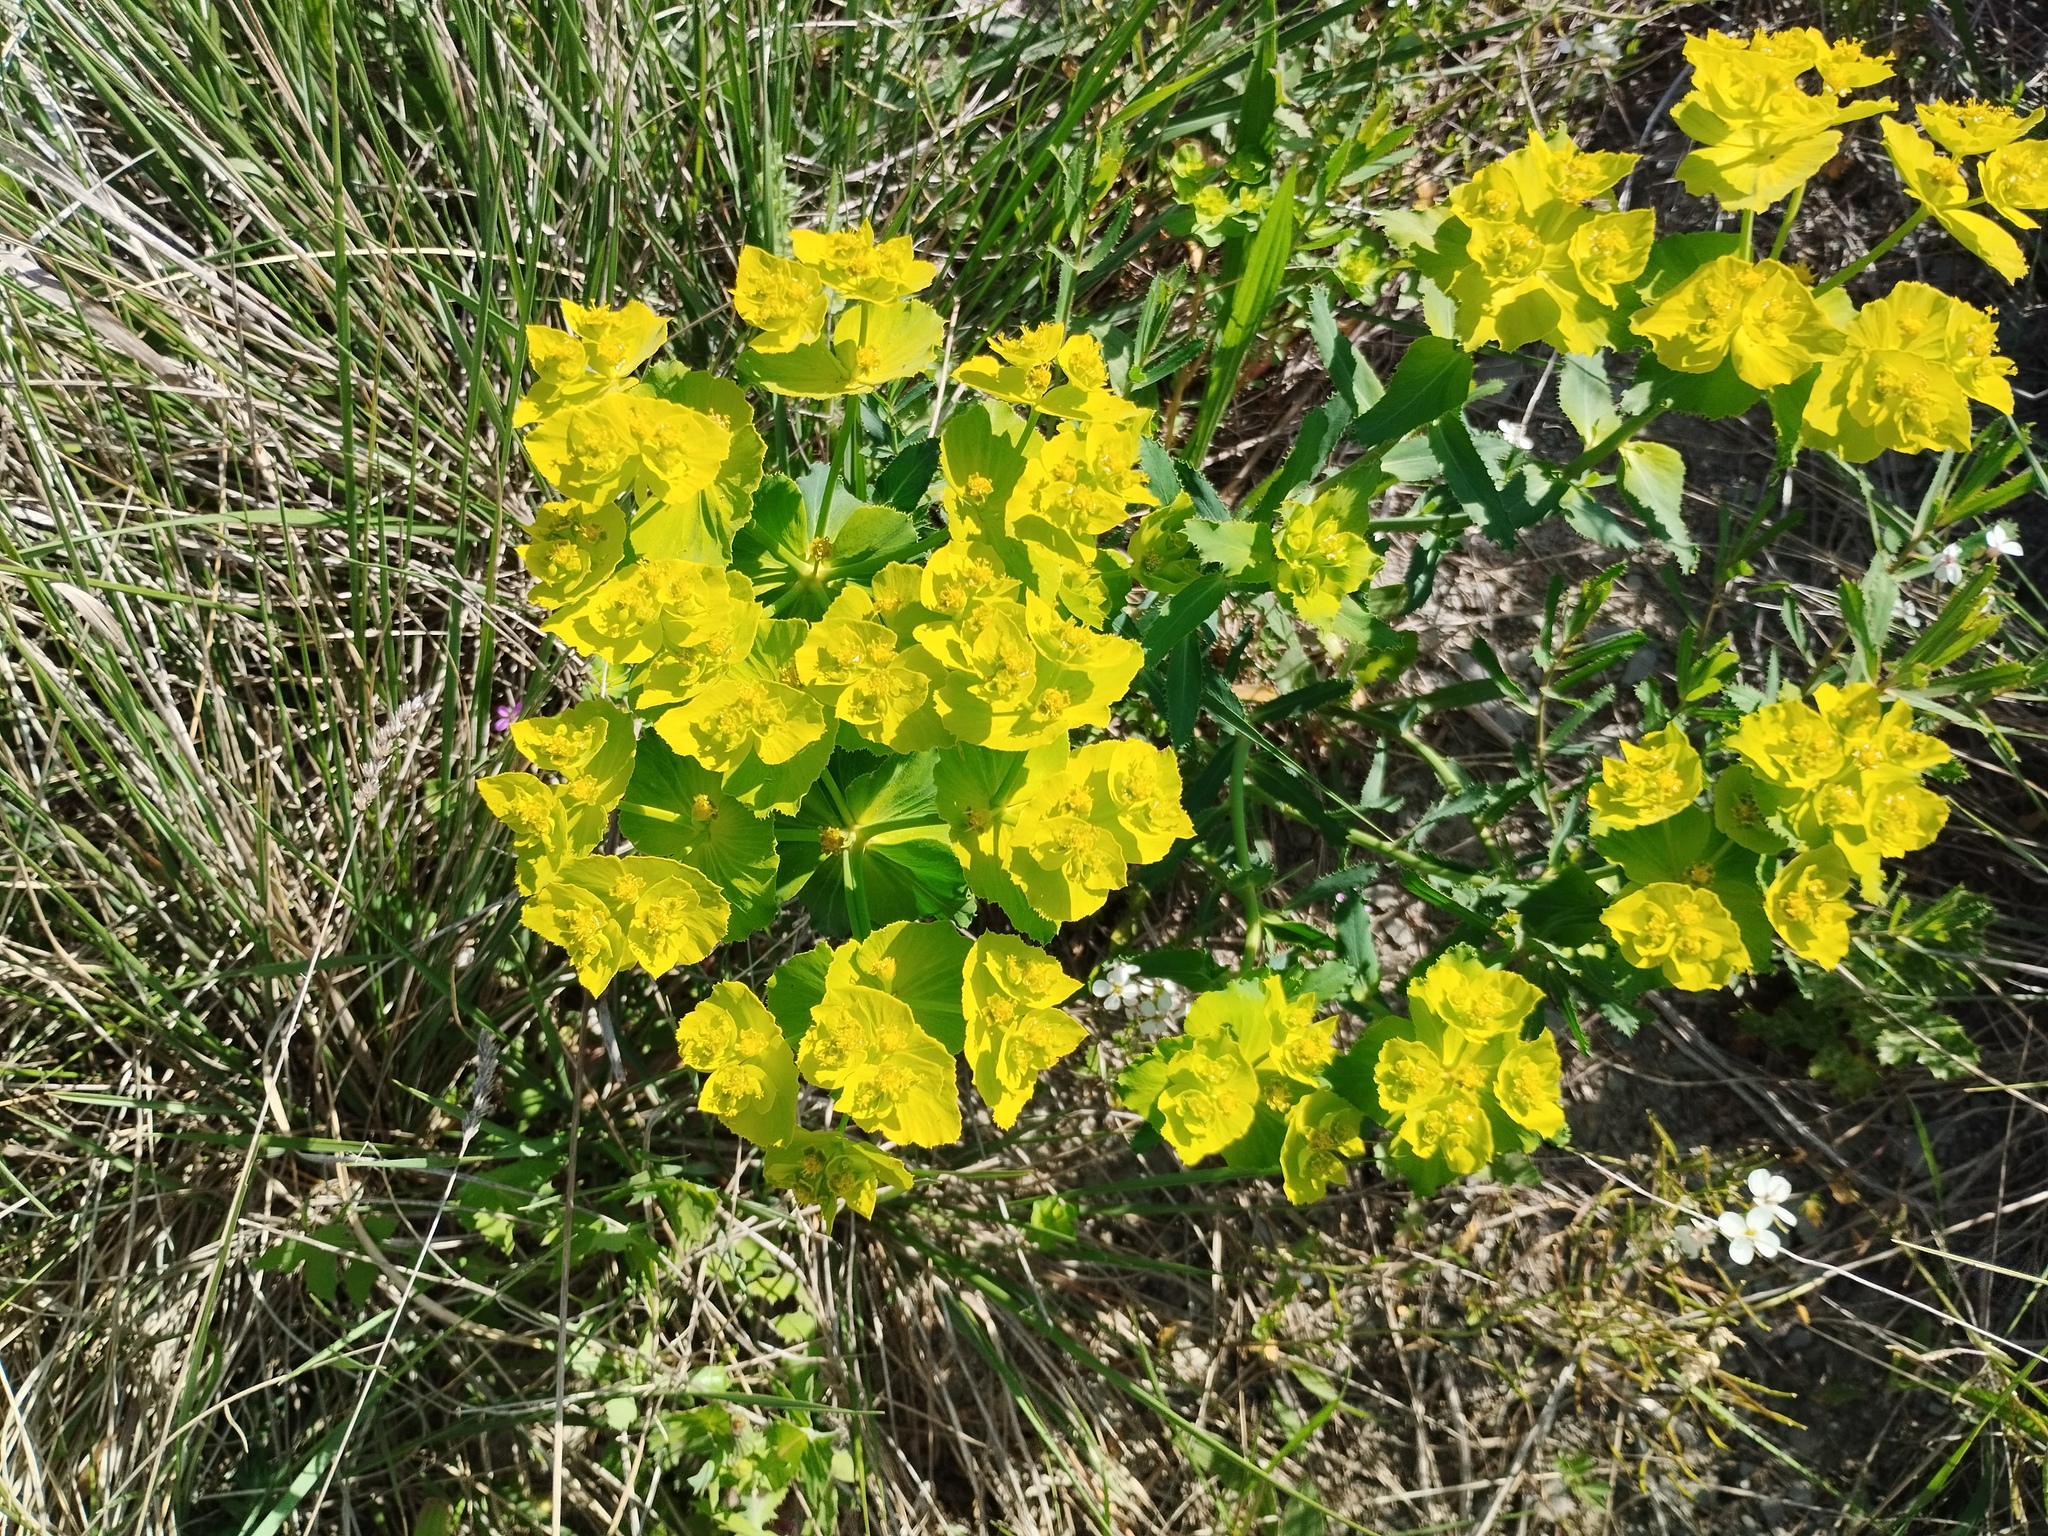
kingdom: Plantae
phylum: Tracheophyta
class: Magnoliopsida
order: Malpighiales
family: Euphorbiaceae
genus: Euphorbia
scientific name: Euphorbia serrata
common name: Serrate spurge
